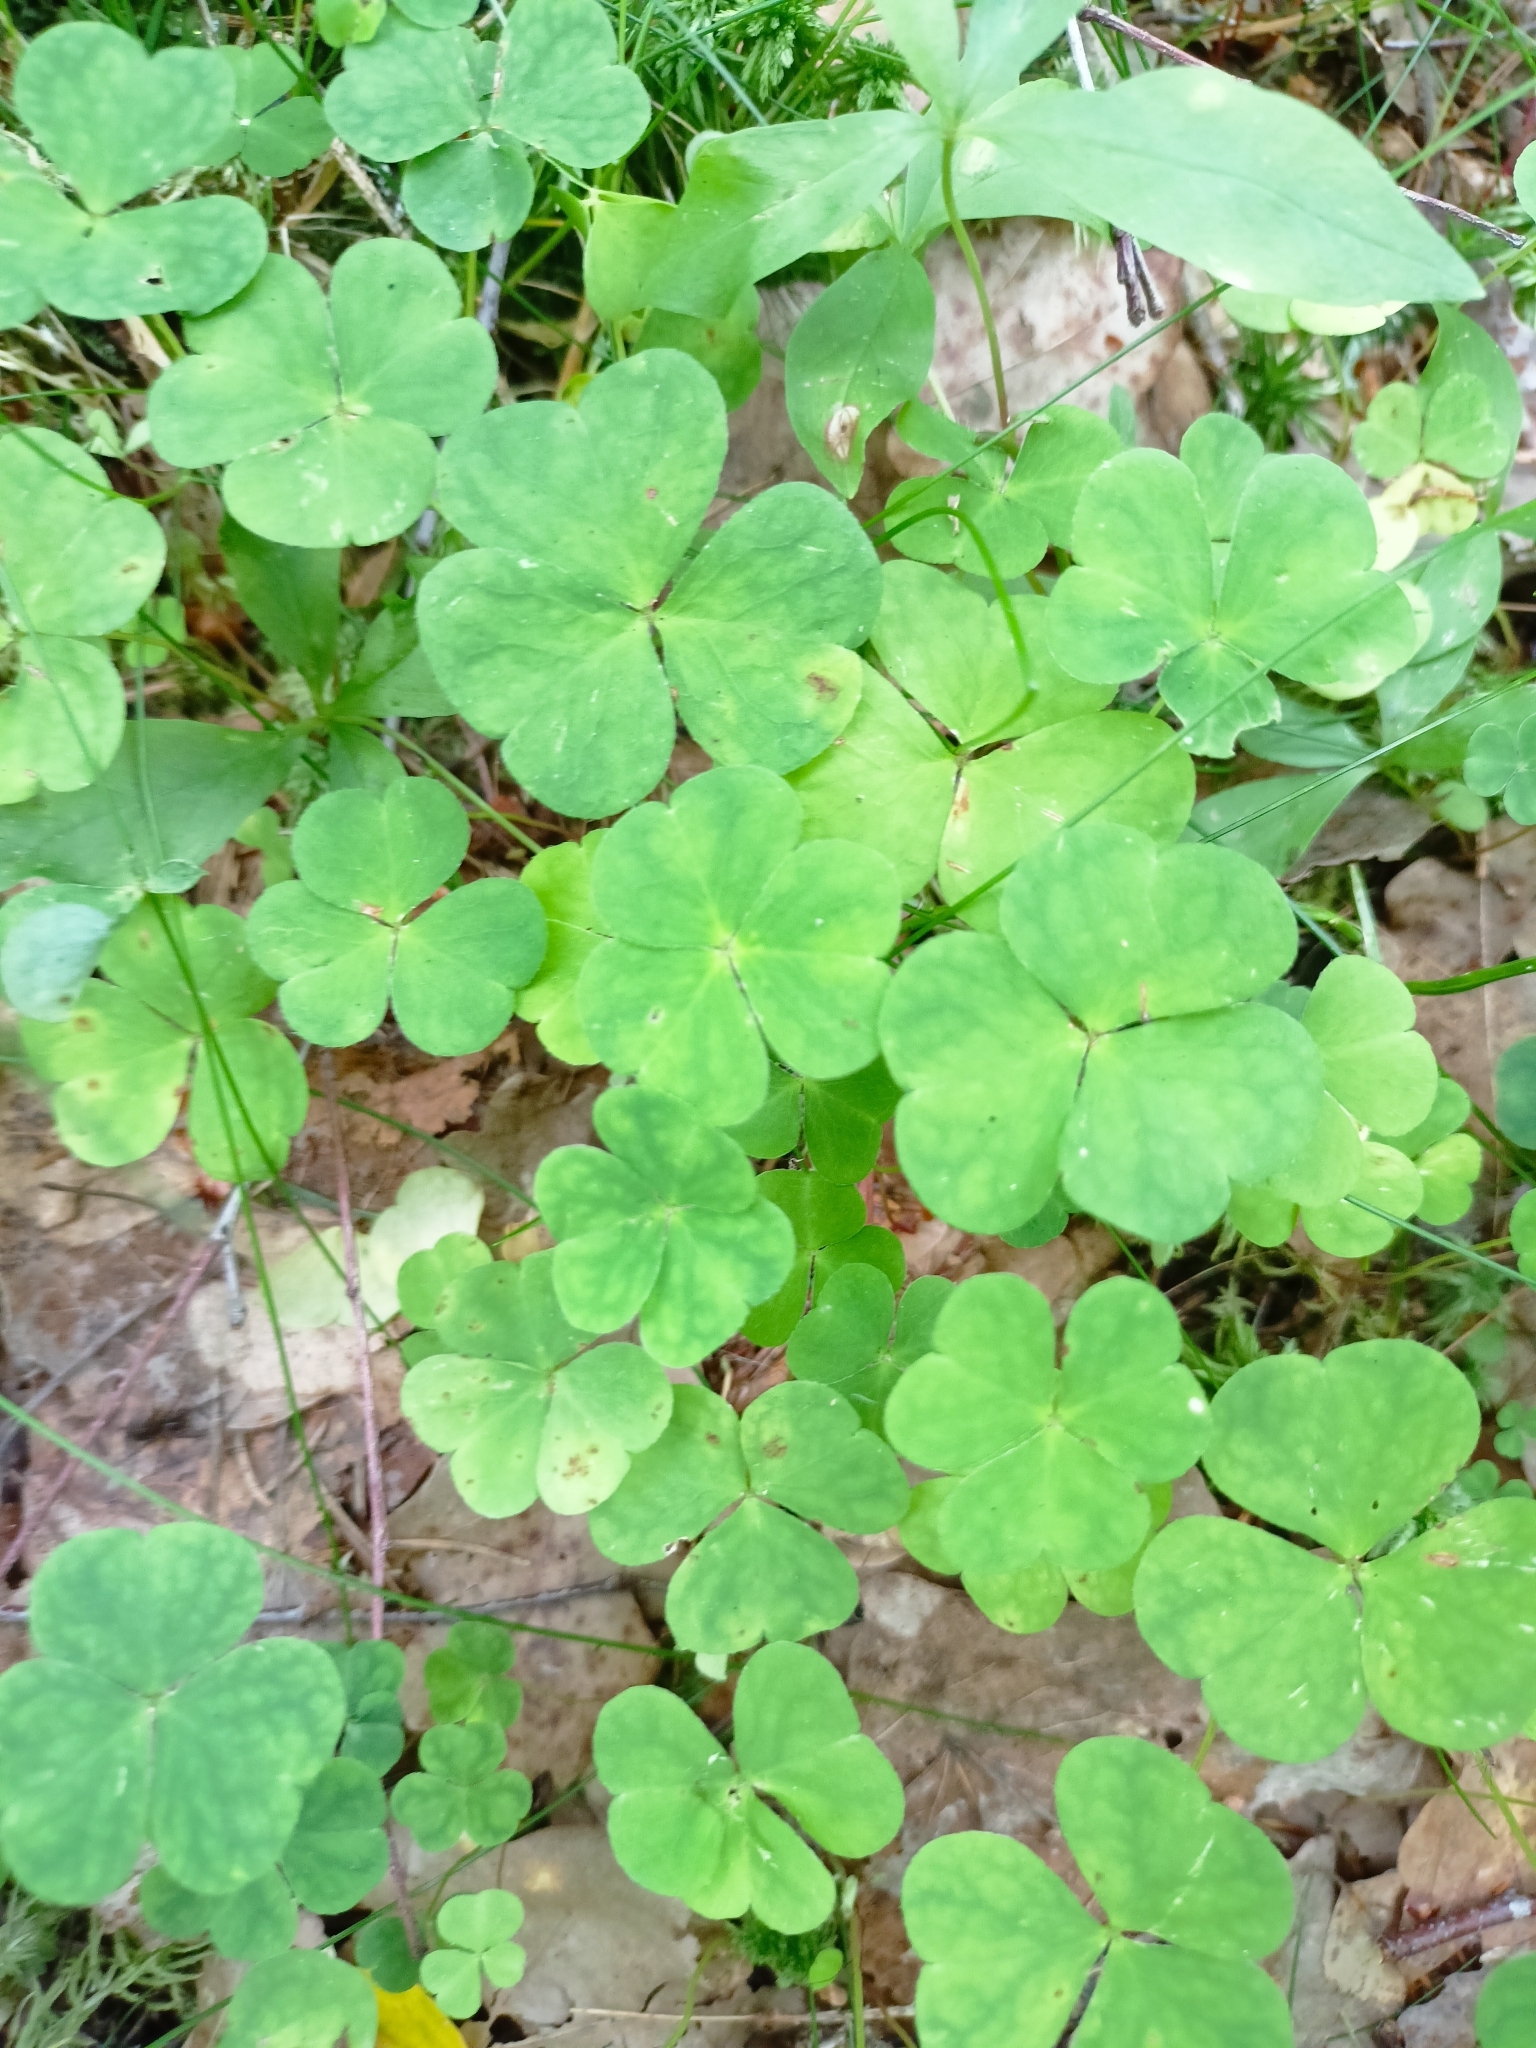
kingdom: Plantae
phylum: Tracheophyta
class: Magnoliopsida
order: Oxalidales
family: Oxalidaceae
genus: Oxalis
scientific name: Oxalis acetosella
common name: Wood-sorrel
